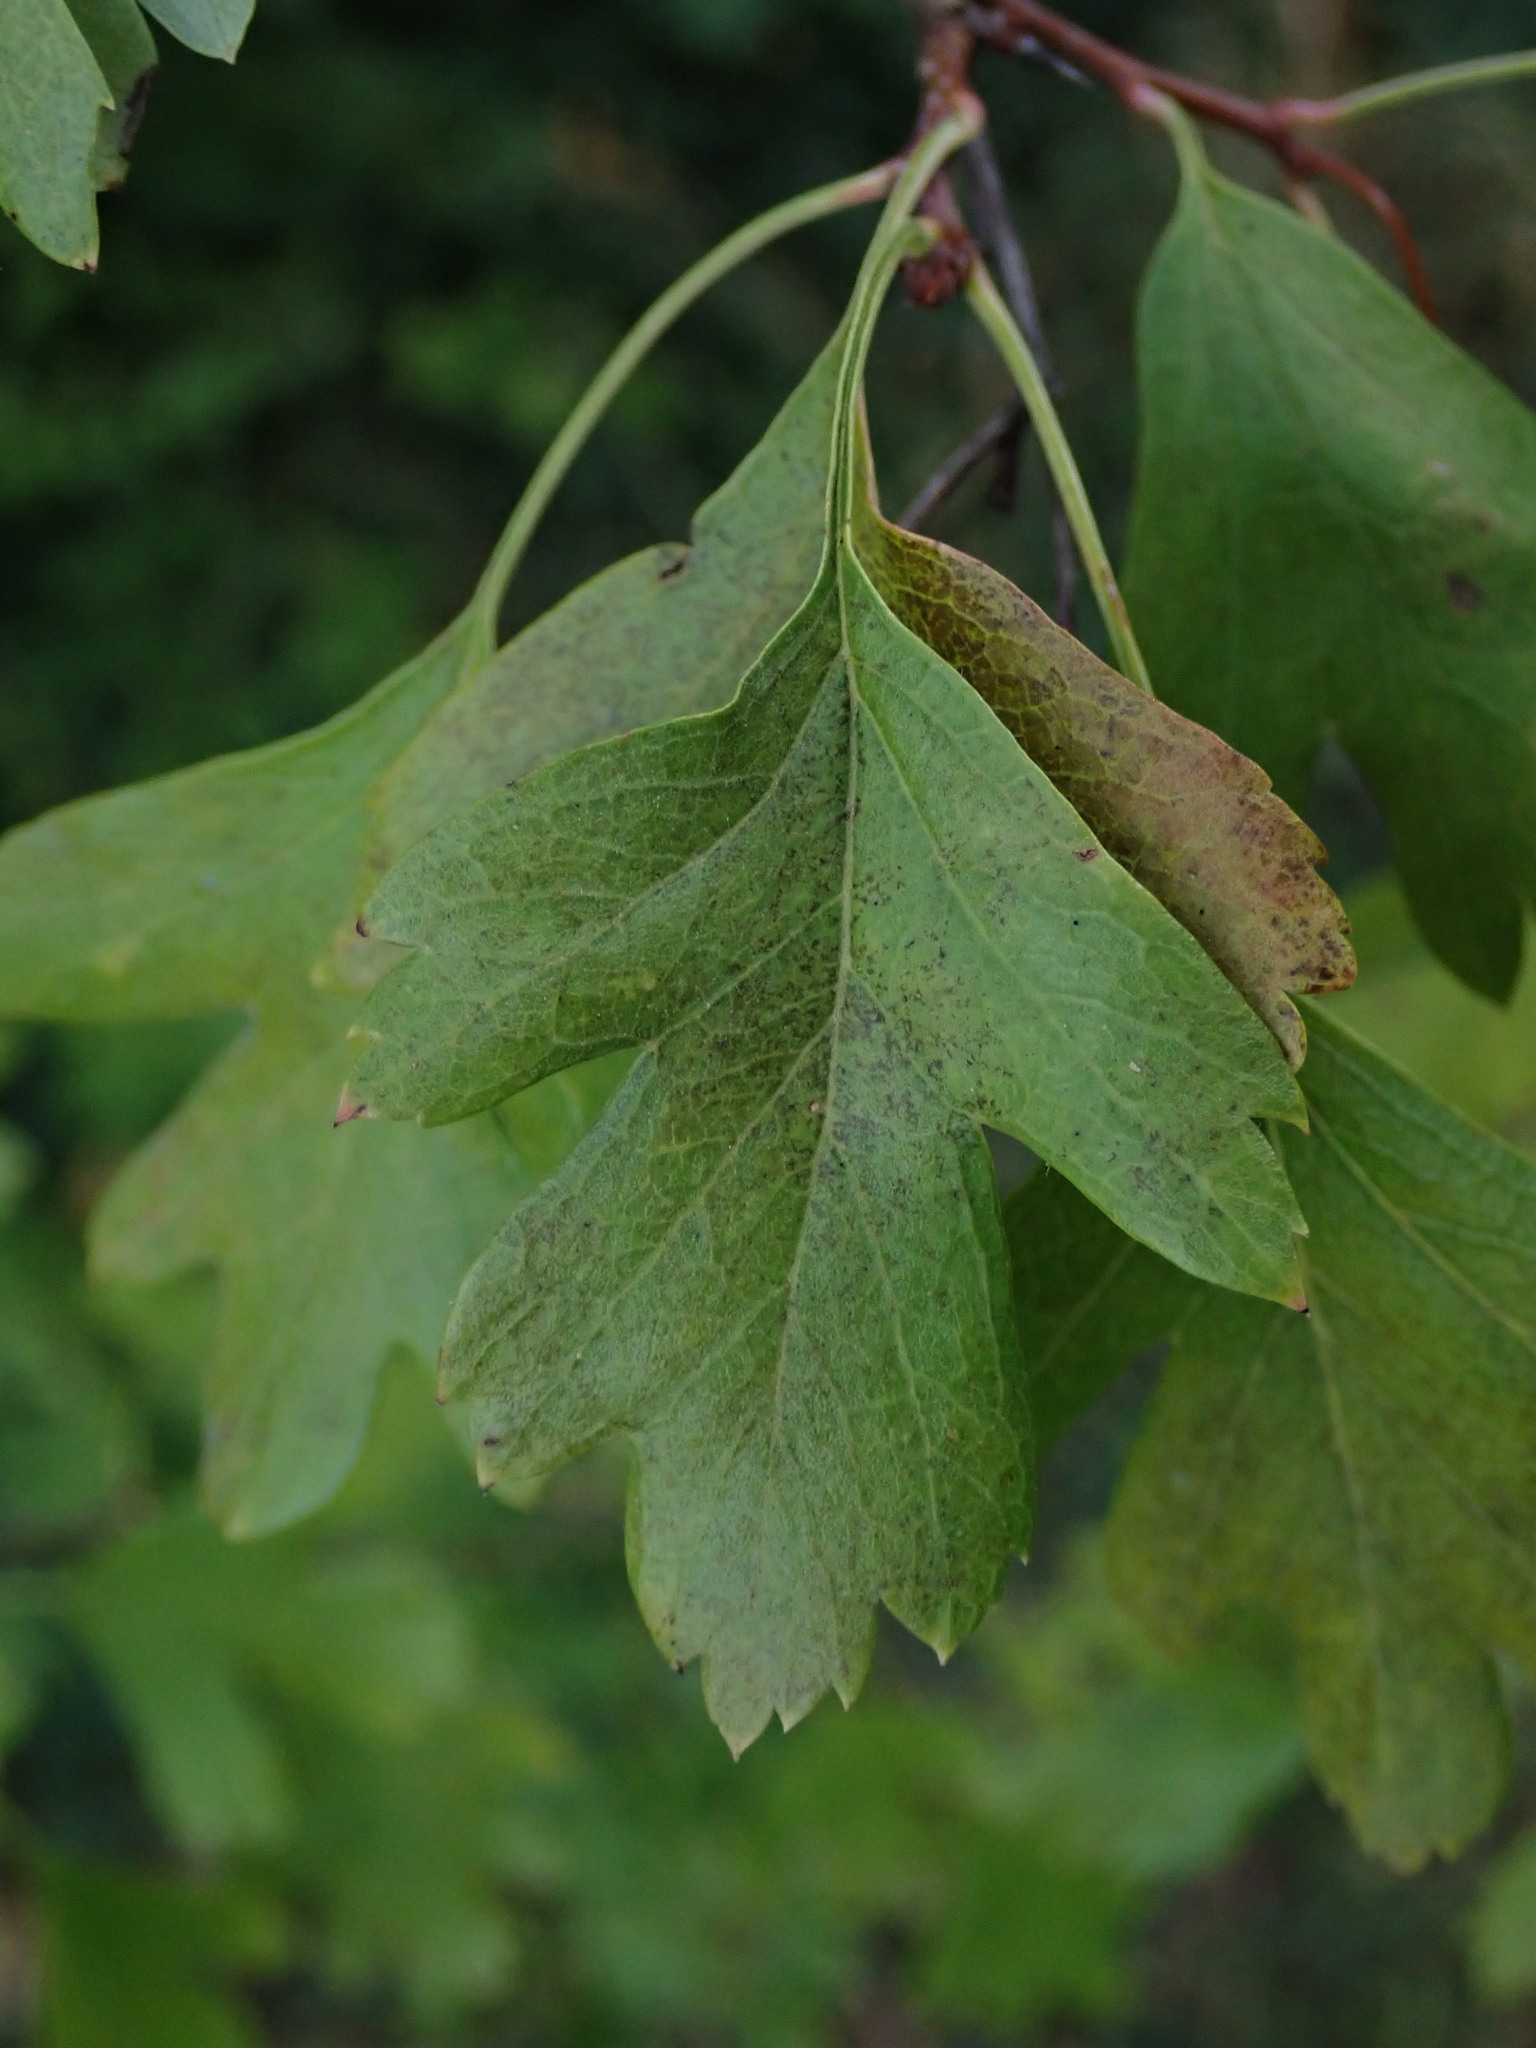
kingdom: Plantae
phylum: Tracheophyta
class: Magnoliopsida
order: Rosales
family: Rosaceae
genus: Crataegus
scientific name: Crataegus monogyna
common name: Hawthorn
